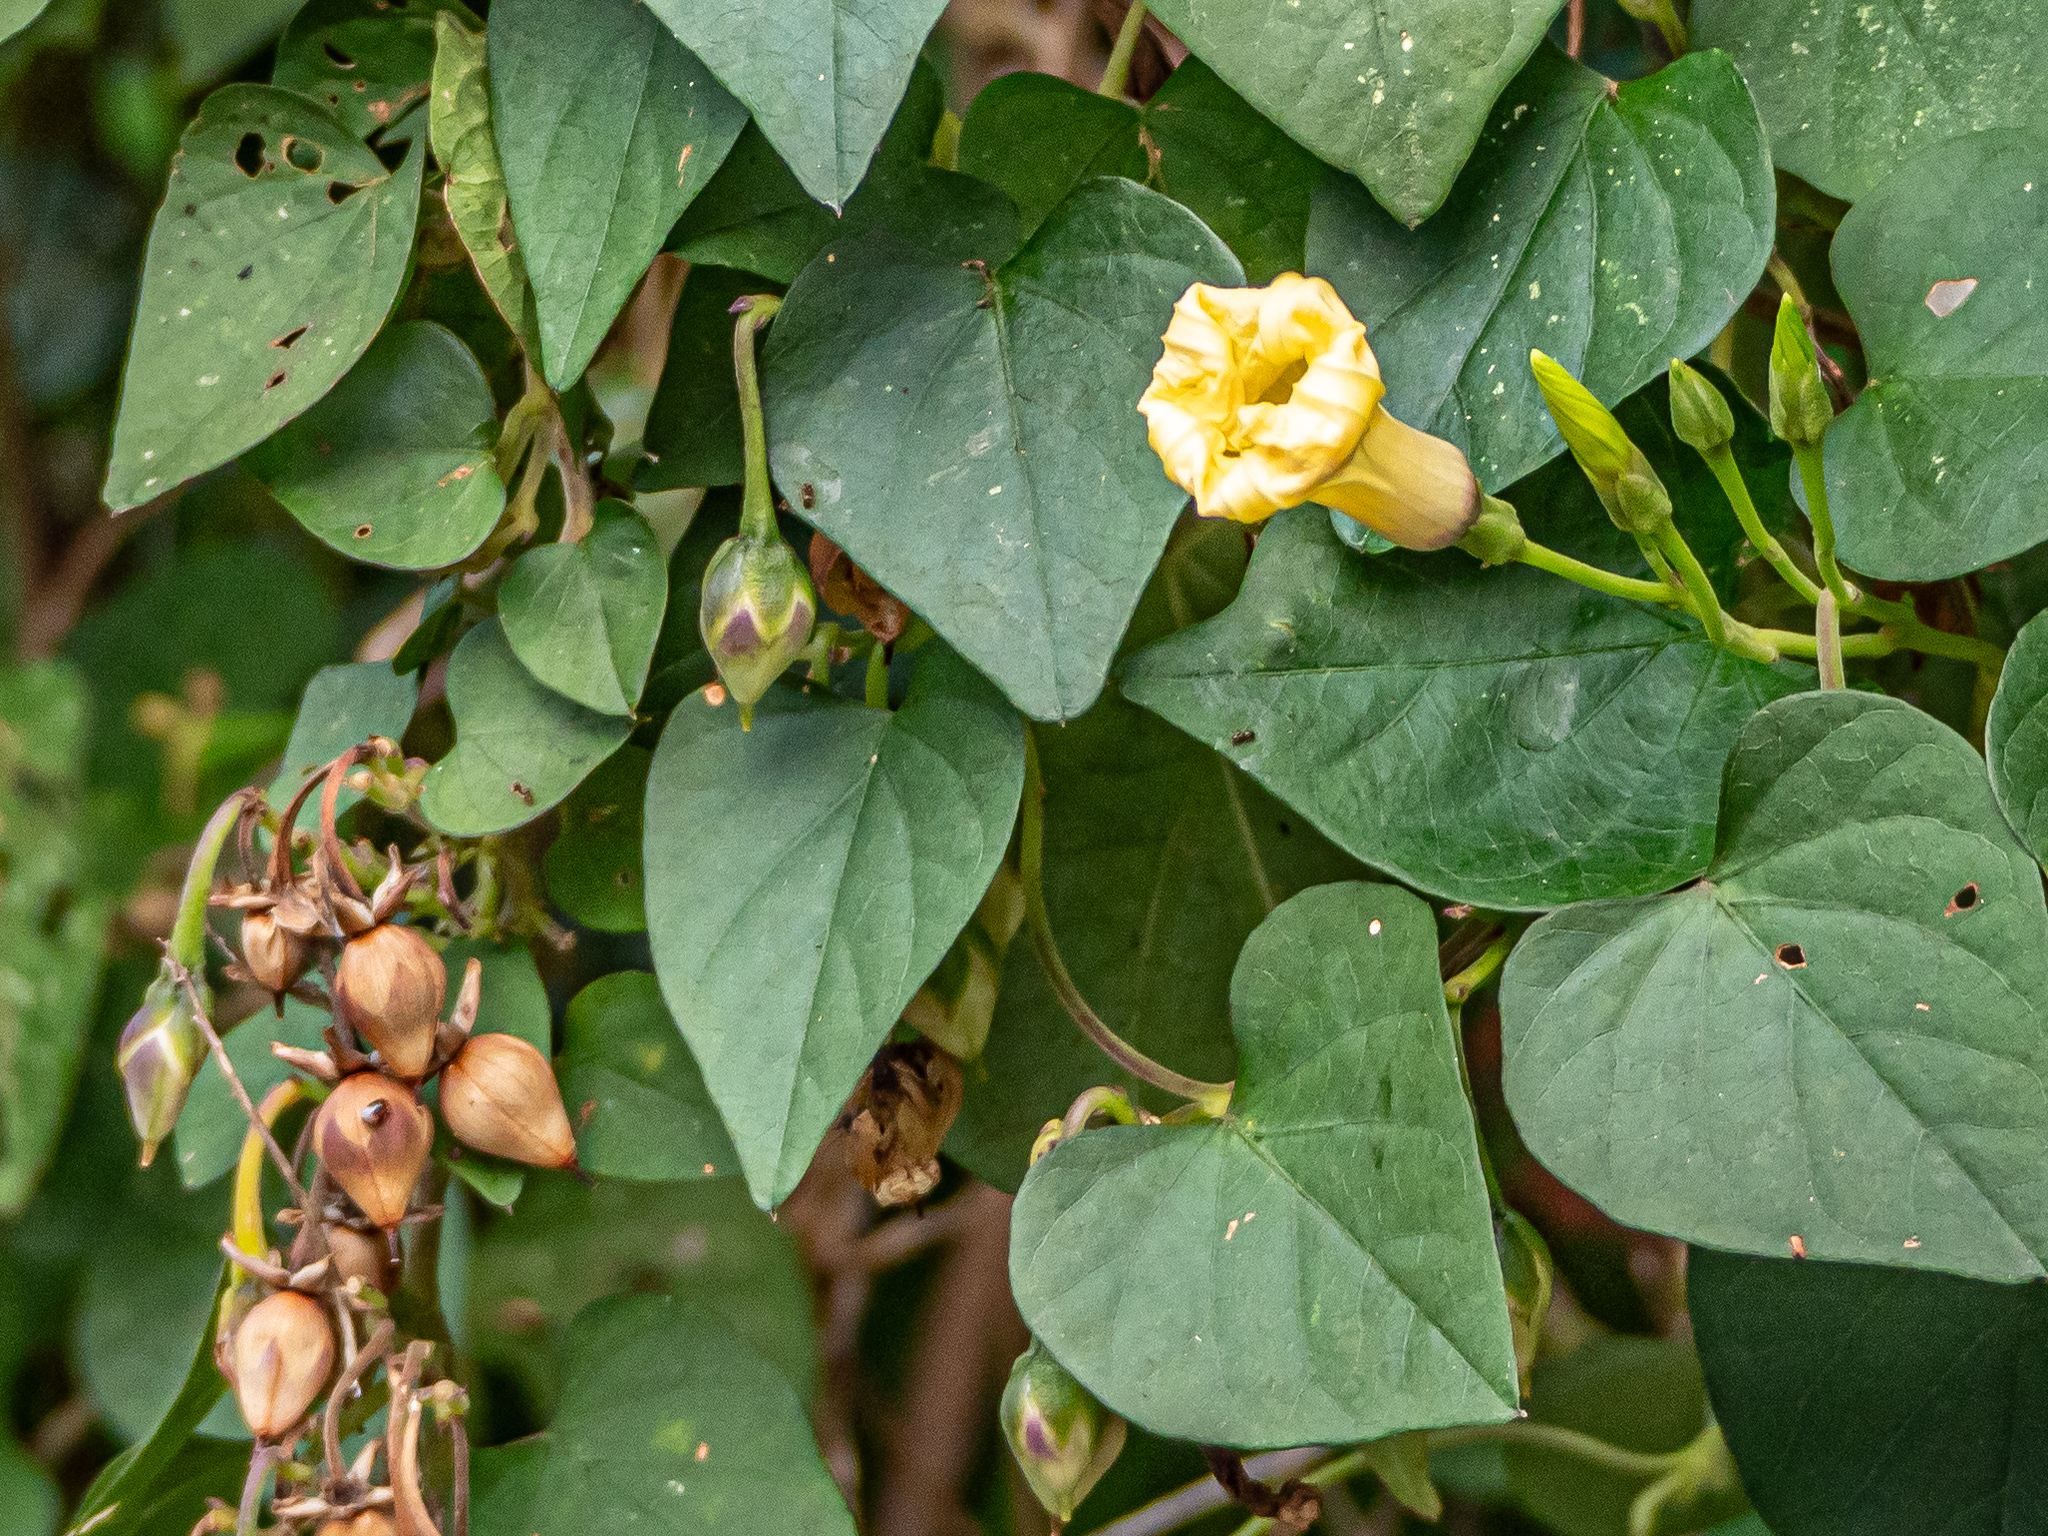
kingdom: Plantae
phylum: Tracheophyta
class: Magnoliopsida
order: Solanales
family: Convolvulaceae
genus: Ipomoea
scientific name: Ipomoea ochracea
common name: Fence morning-glory
